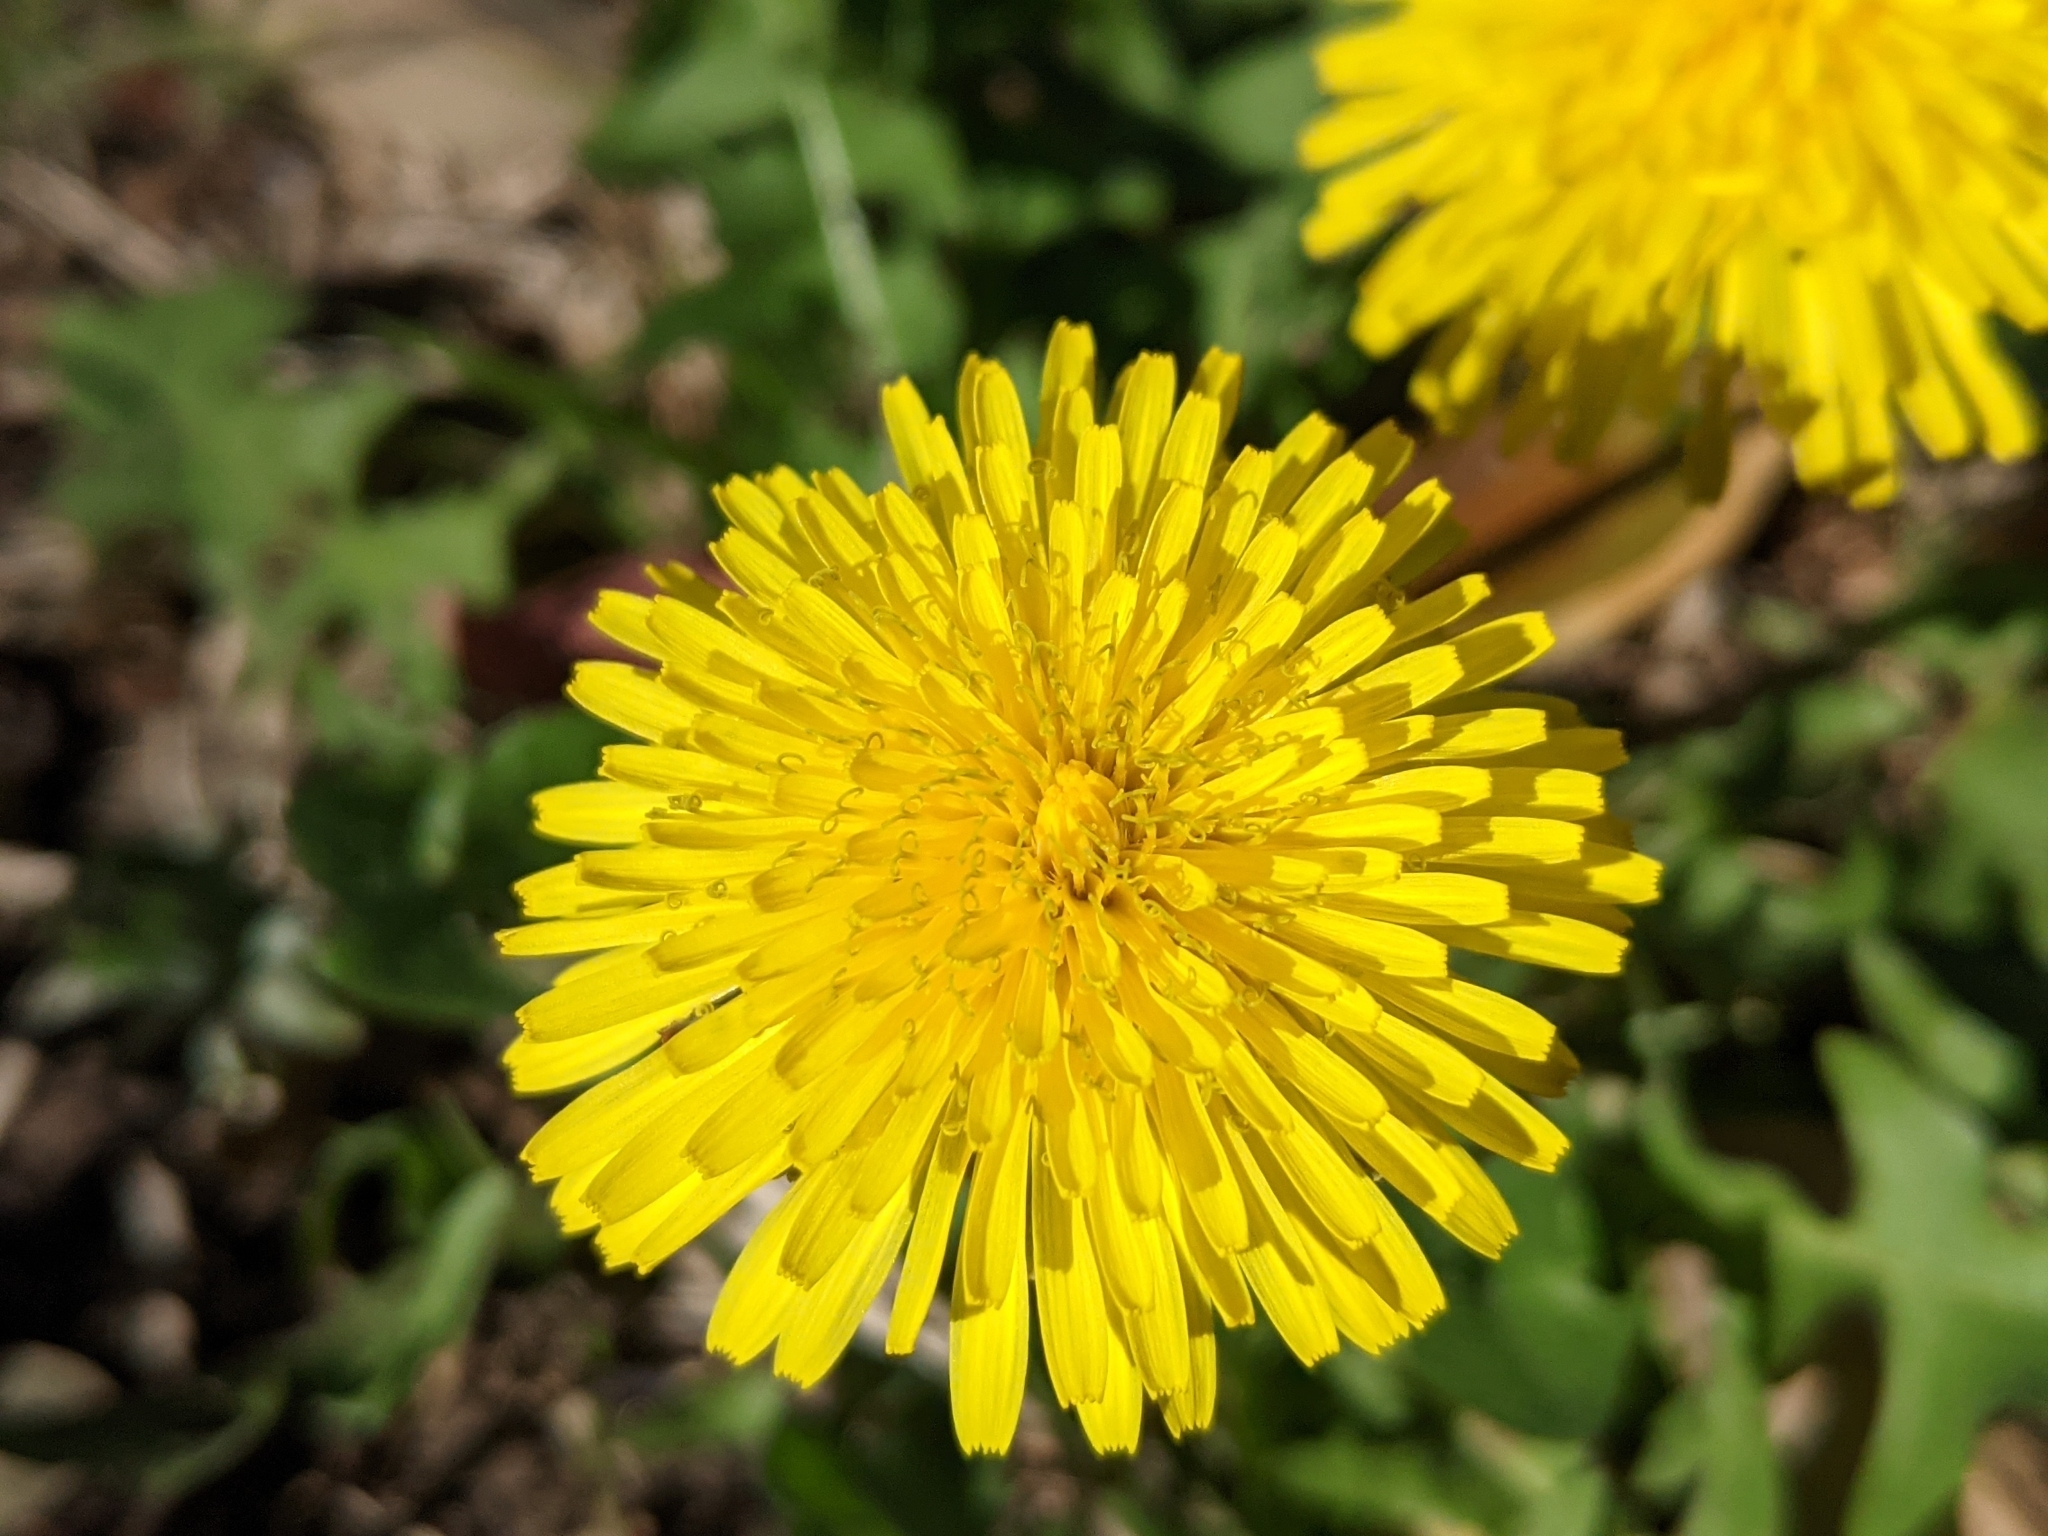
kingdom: Plantae
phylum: Tracheophyta
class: Magnoliopsida
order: Asterales
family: Asteraceae
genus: Taraxacum
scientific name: Taraxacum officinale
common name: Common dandelion
